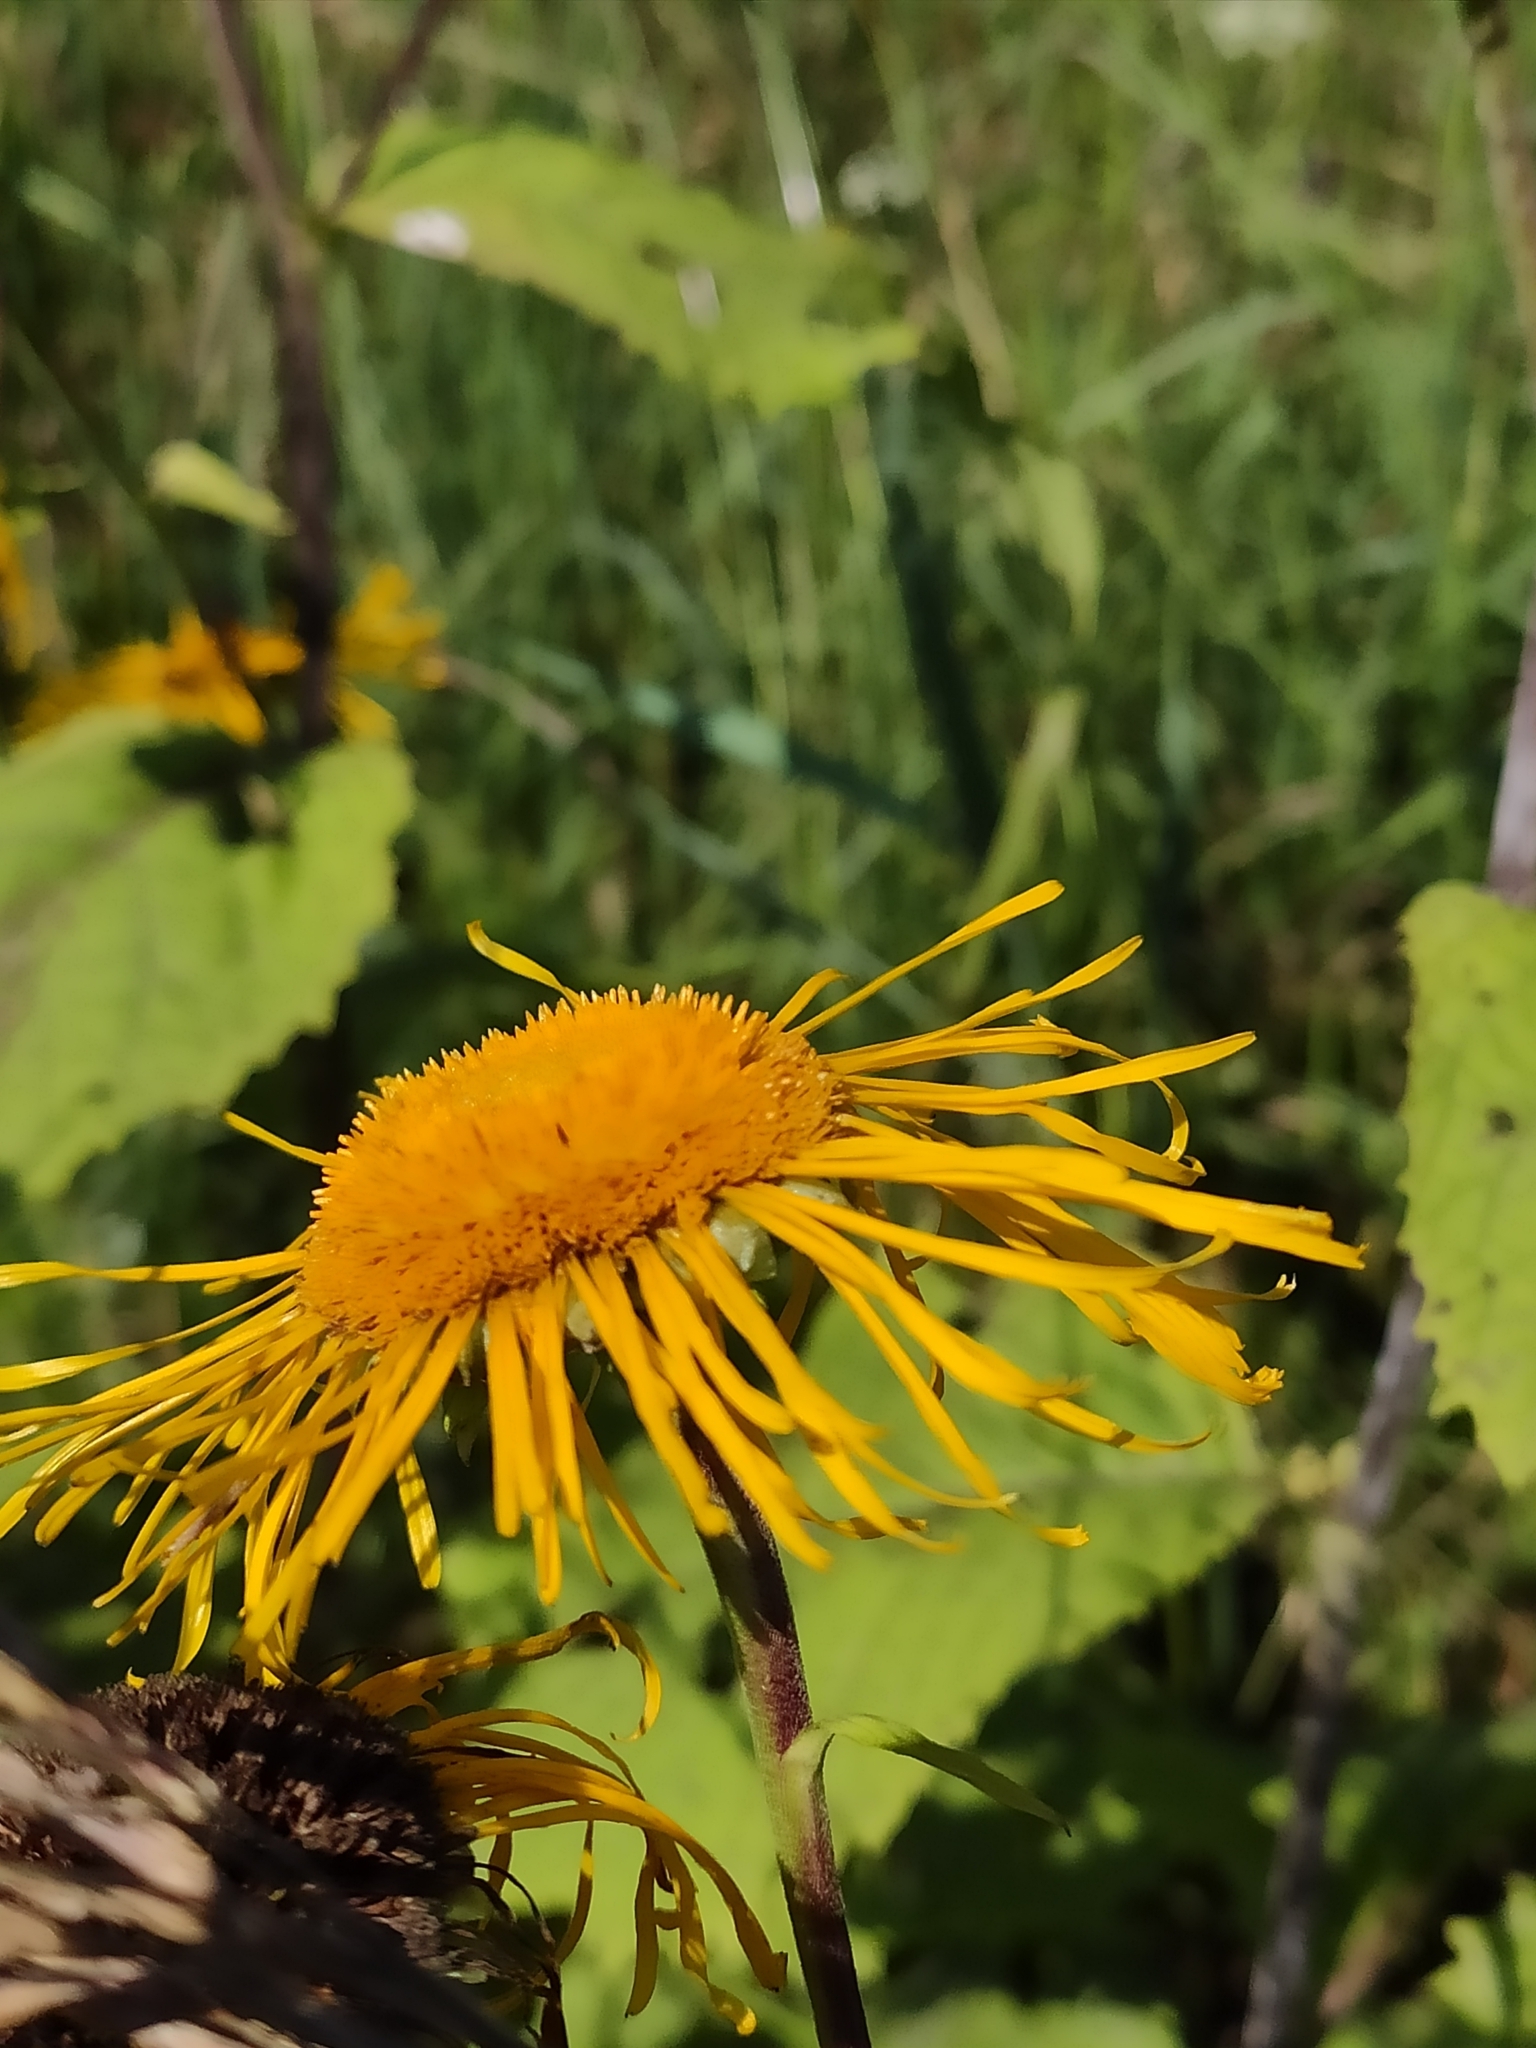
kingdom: Plantae
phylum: Tracheophyta
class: Magnoliopsida
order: Asterales
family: Asteraceae
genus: Telekia
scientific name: Telekia speciosa
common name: Yellow oxeye
